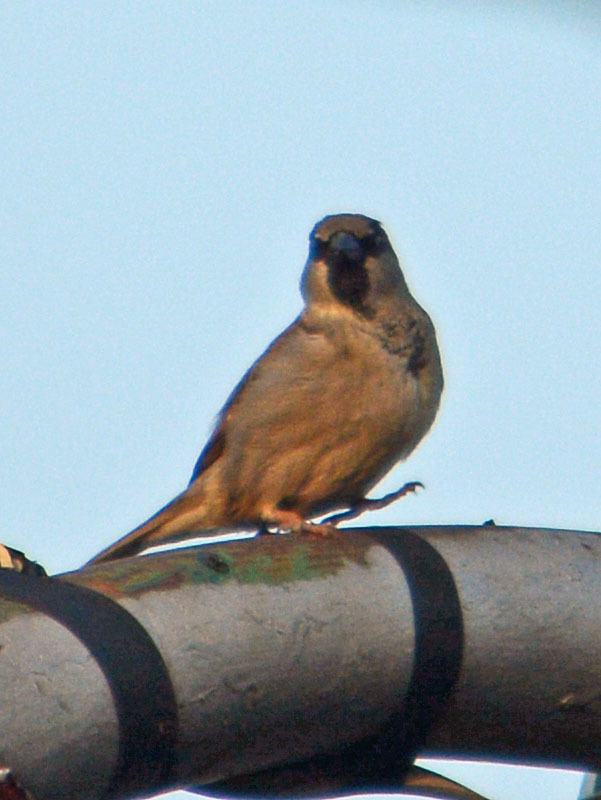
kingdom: Animalia
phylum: Chordata
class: Aves
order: Passeriformes
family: Passeridae
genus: Passer
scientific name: Passer domesticus
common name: House sparrow
